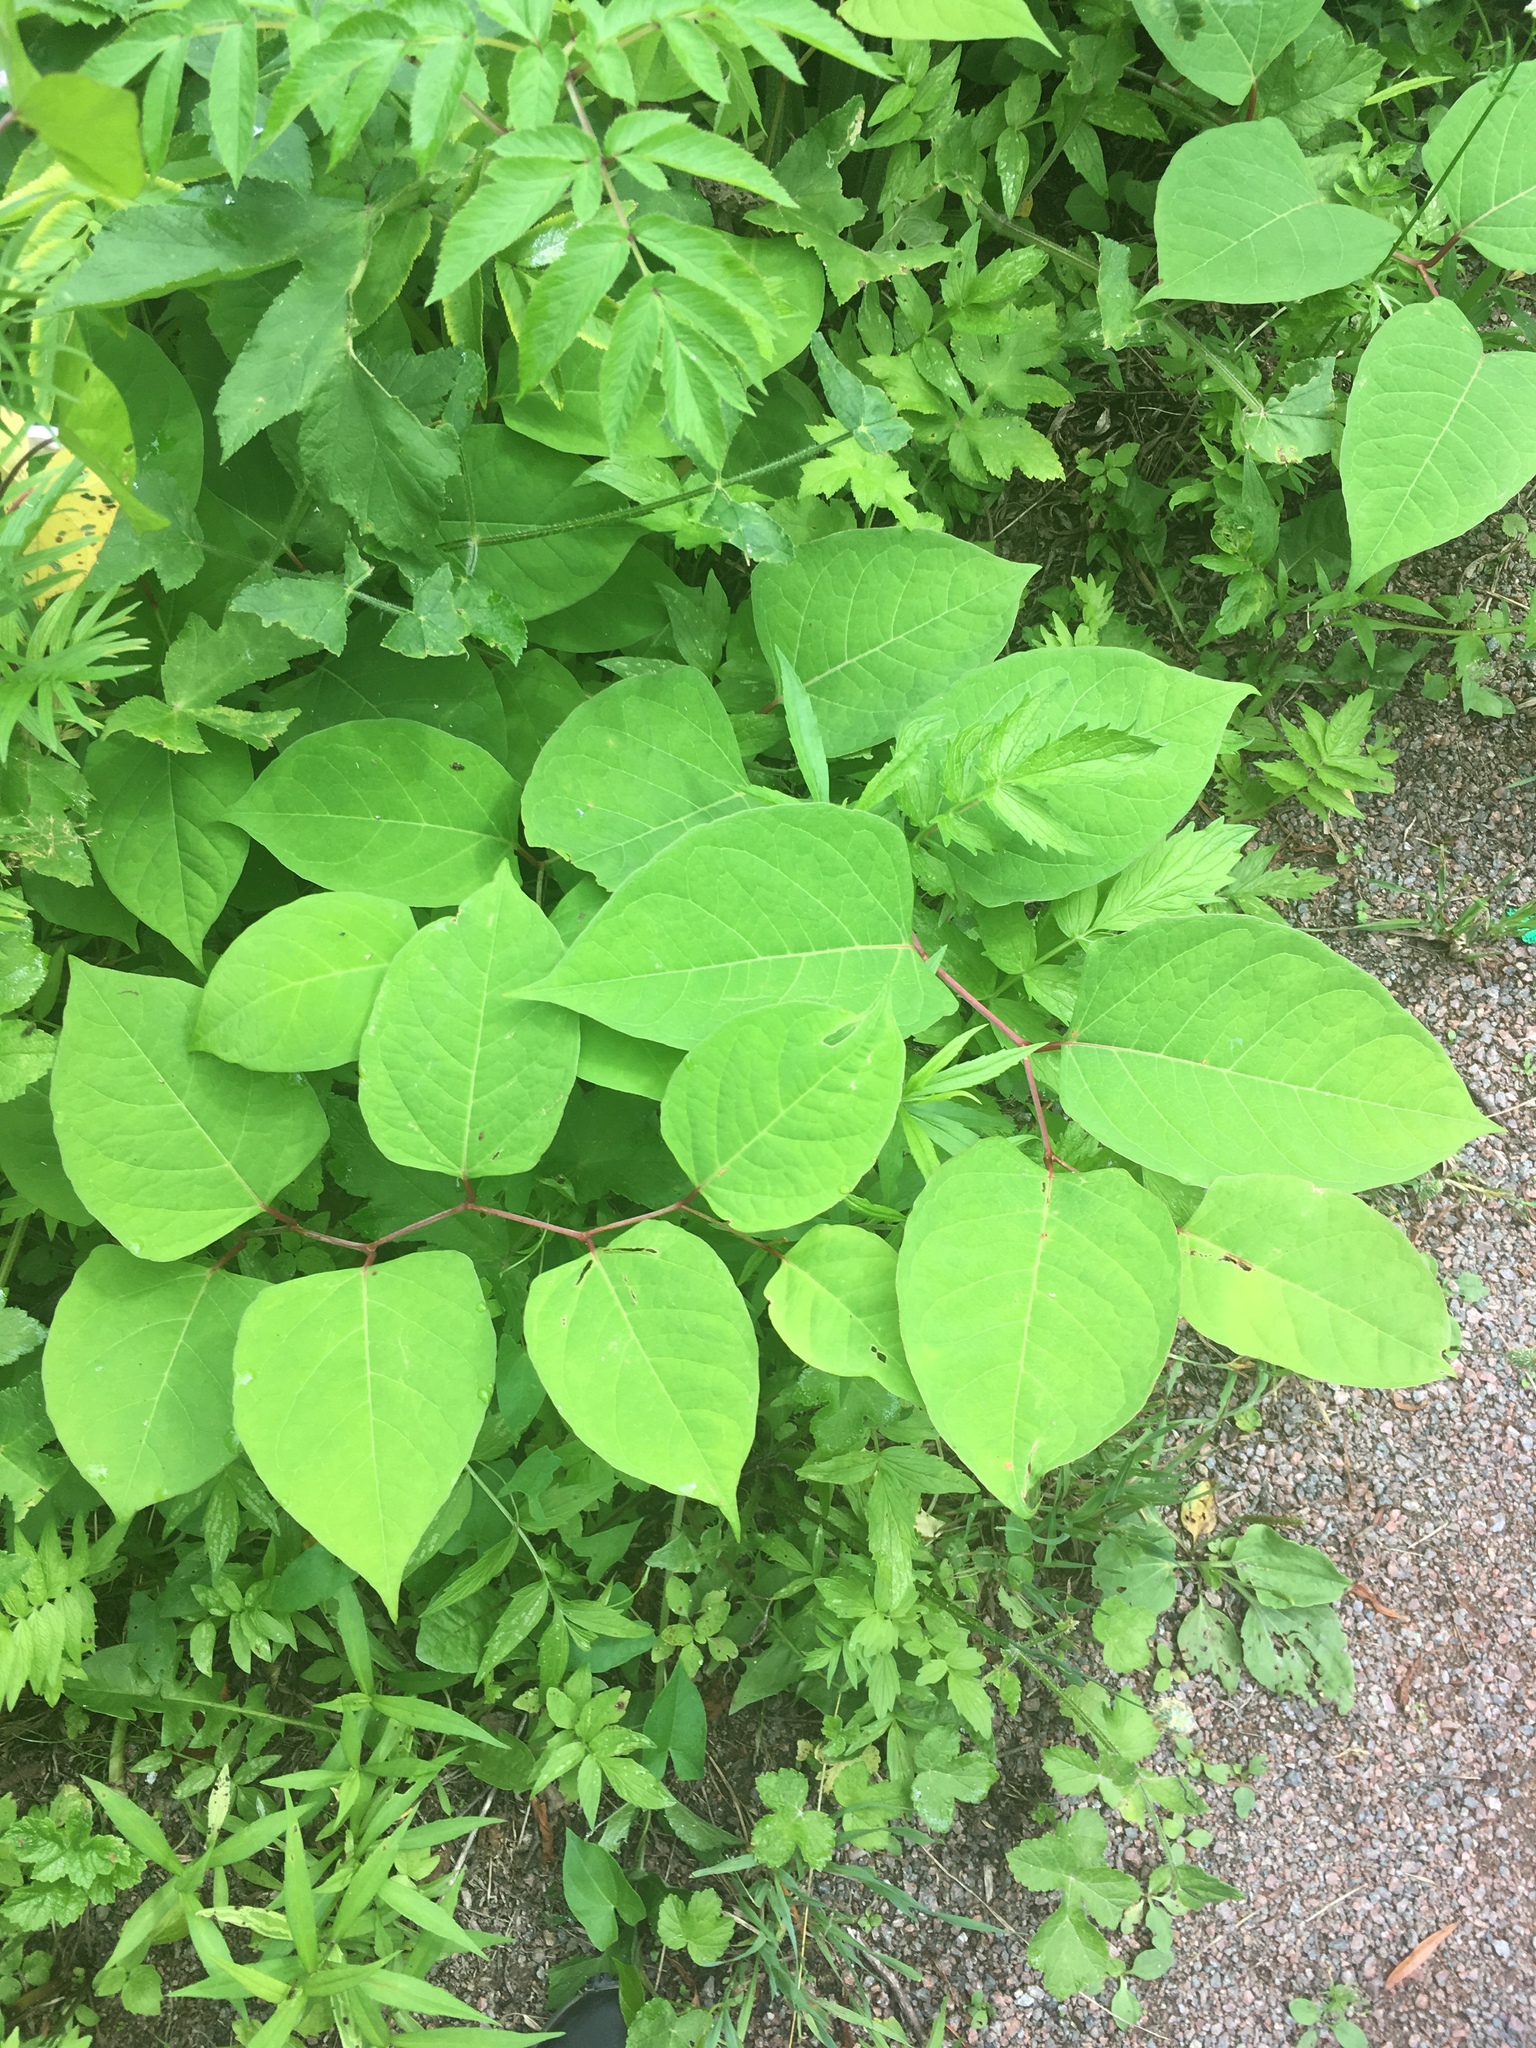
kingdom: Plantae
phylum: Tracheophyta
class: Magnoliopsida
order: Caryophyllales
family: Polygonaceae
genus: Reynoutria
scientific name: Reynoutria japonica
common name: Japanese knotweed
